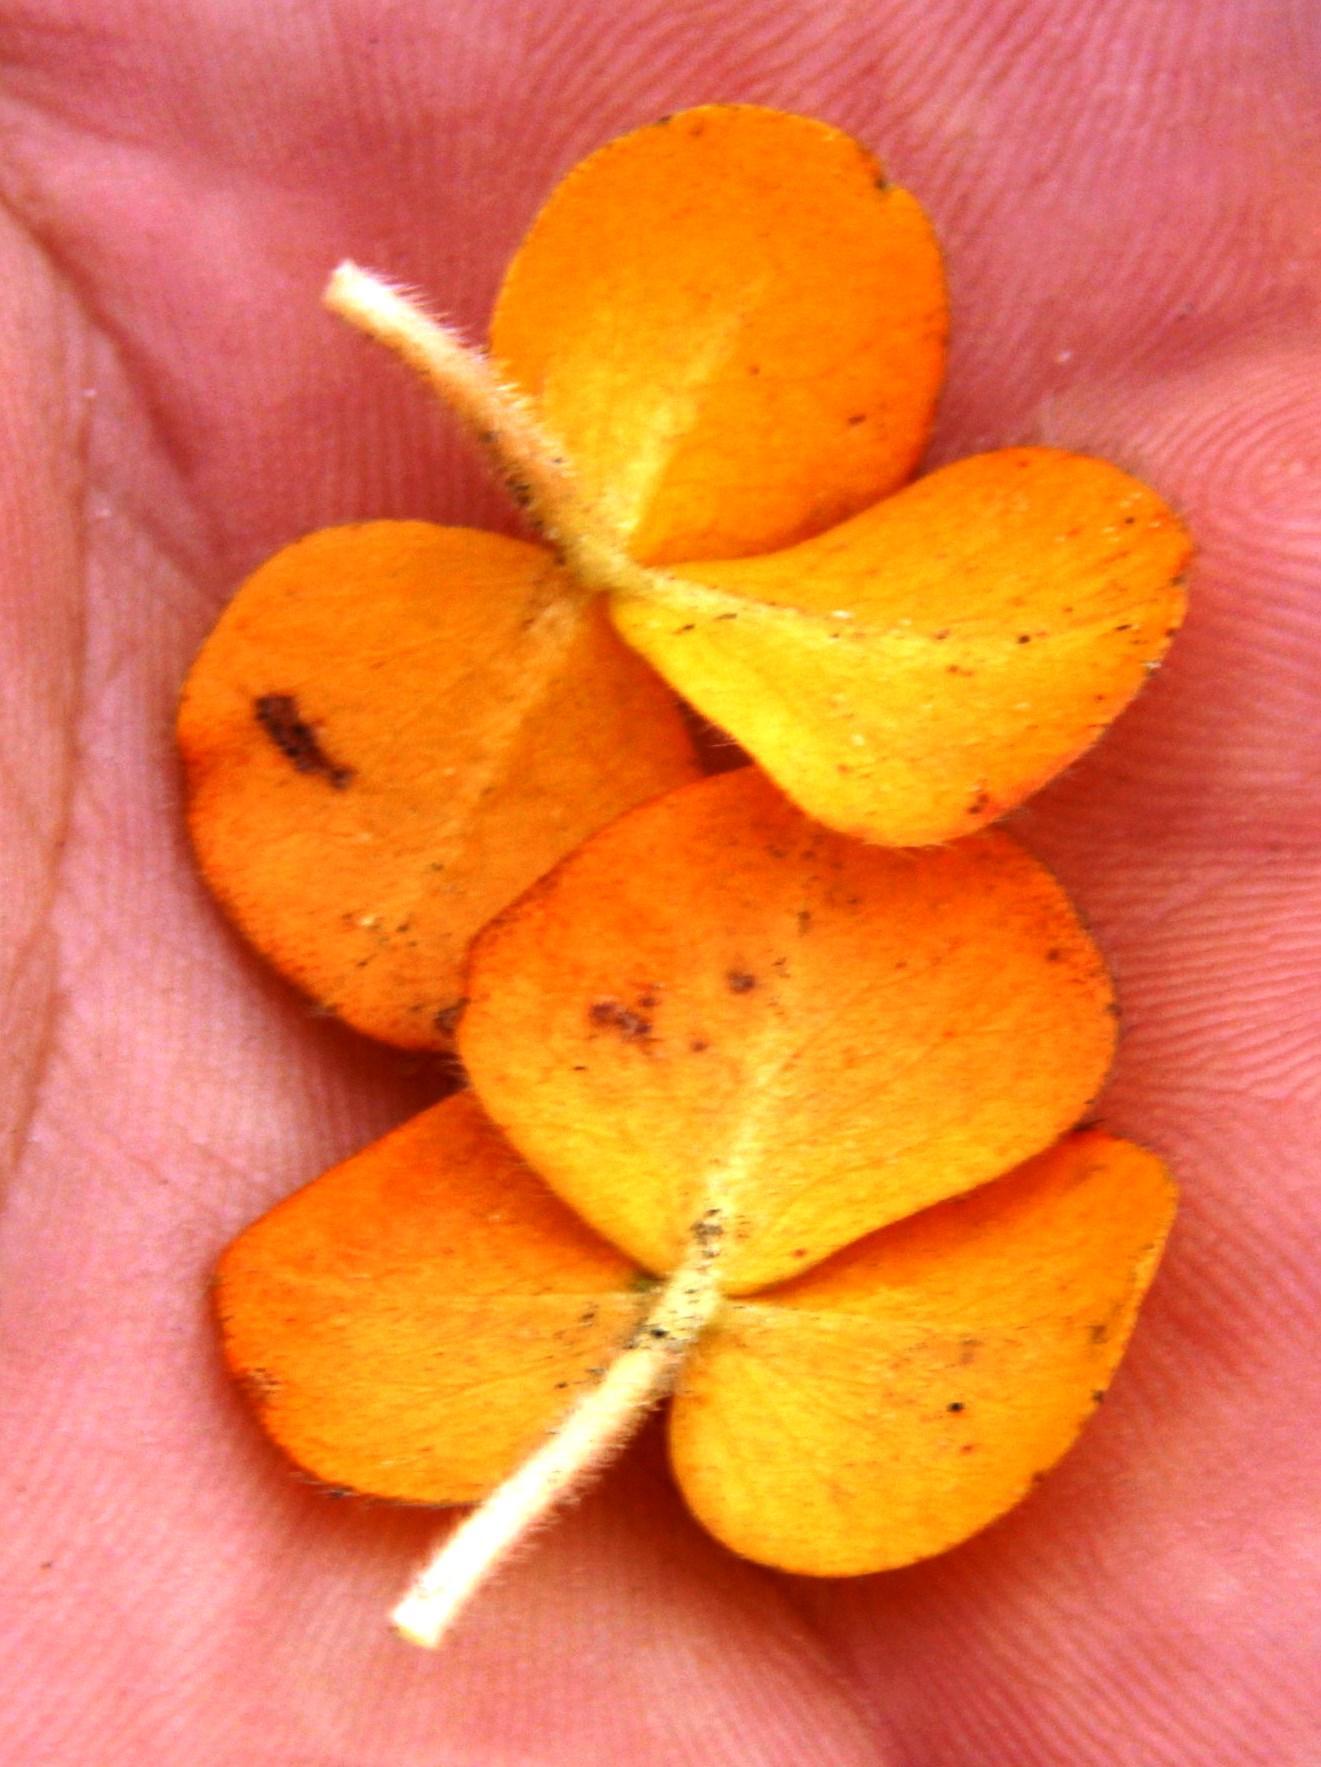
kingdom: Plantae
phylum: Tracheophyta
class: Magnoliopsida
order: Oxalidales
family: Oxalidaceae
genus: Oxalis
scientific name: Oxalis purpurea
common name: Purple woodsorrel
